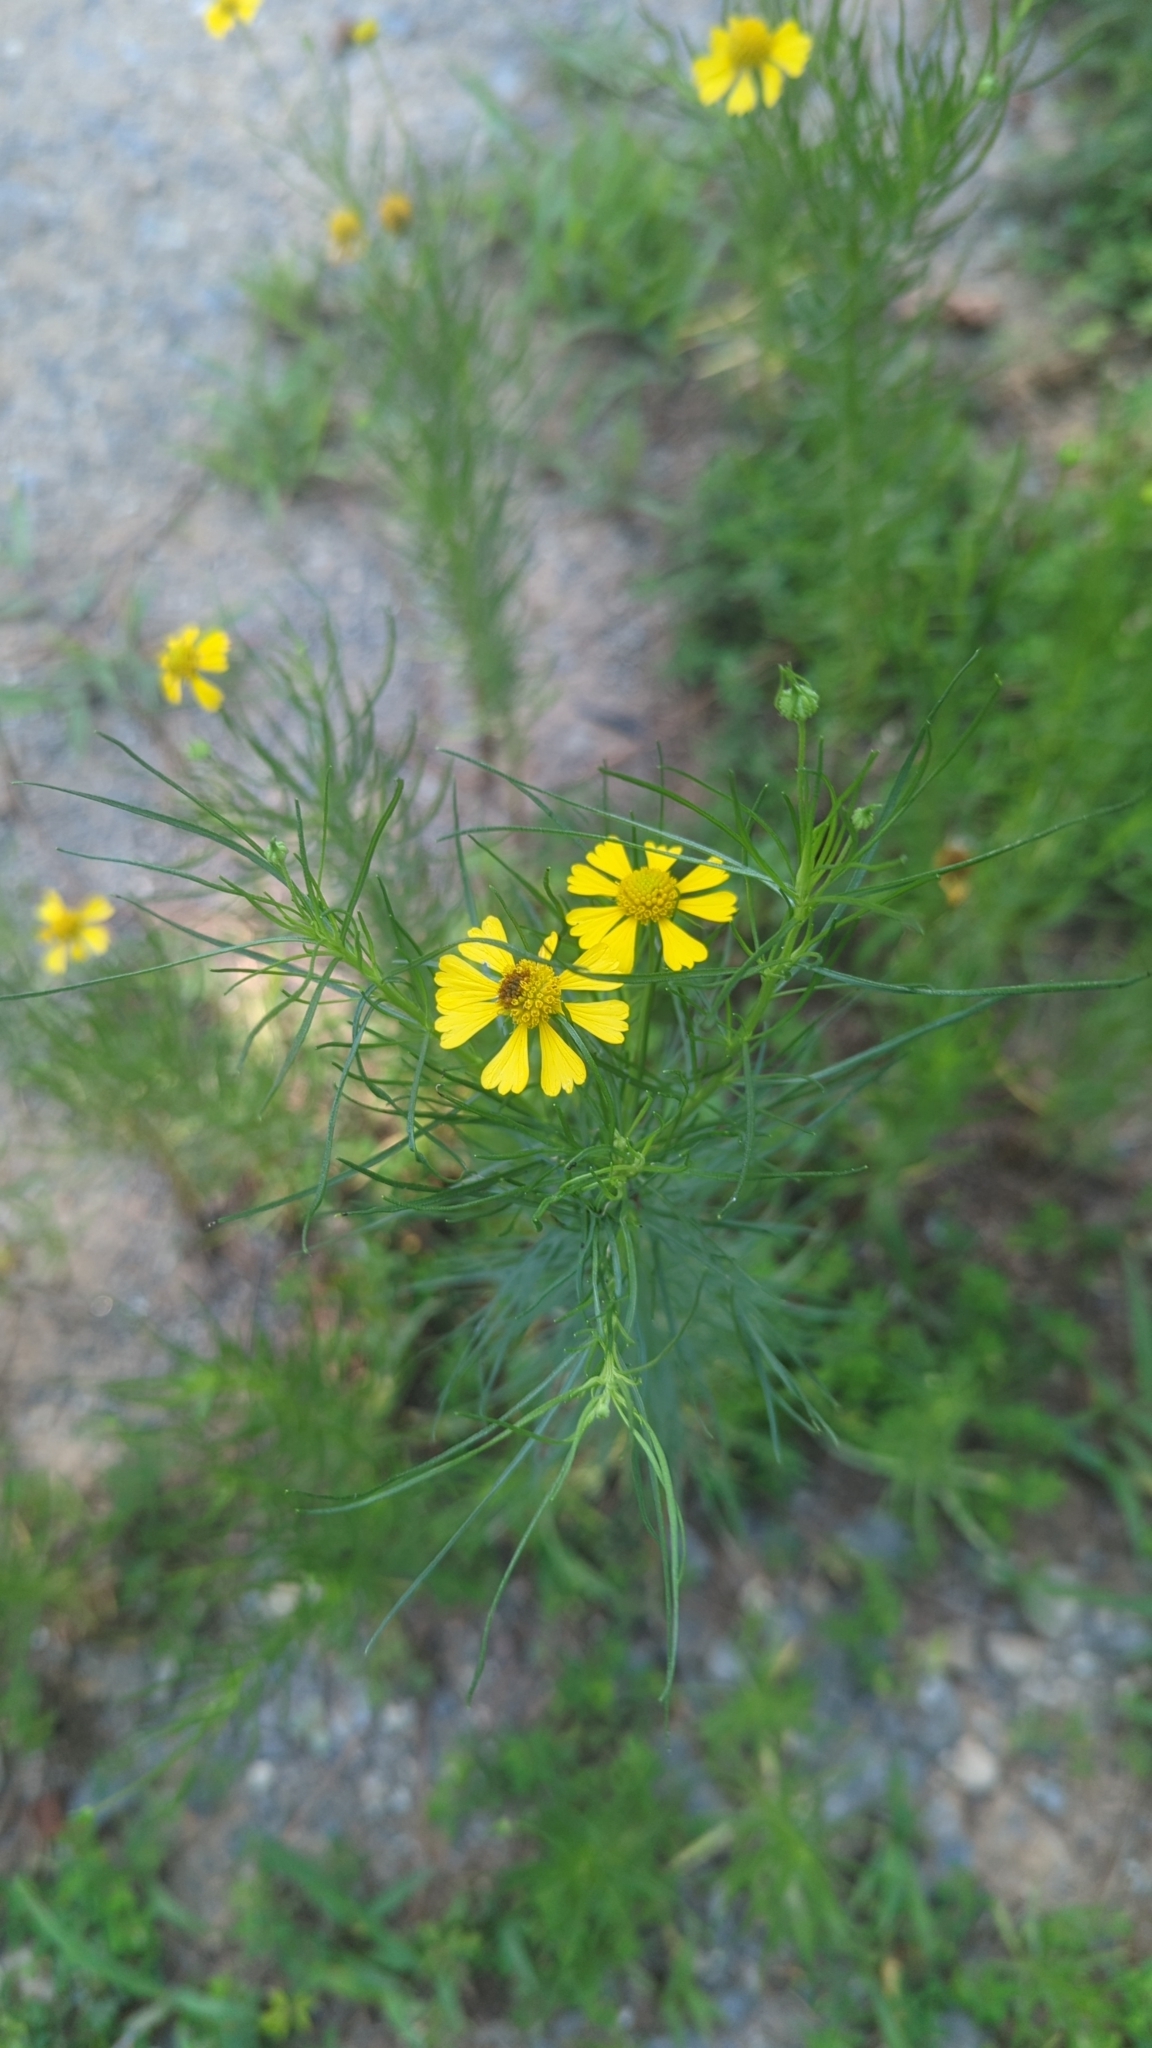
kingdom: Plantae
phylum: Tracheophyta
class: Magnoliopsida
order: Asterales
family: Asteraceae
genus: Helenium
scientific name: Helenium amarum
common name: Bitter sneezeweed
